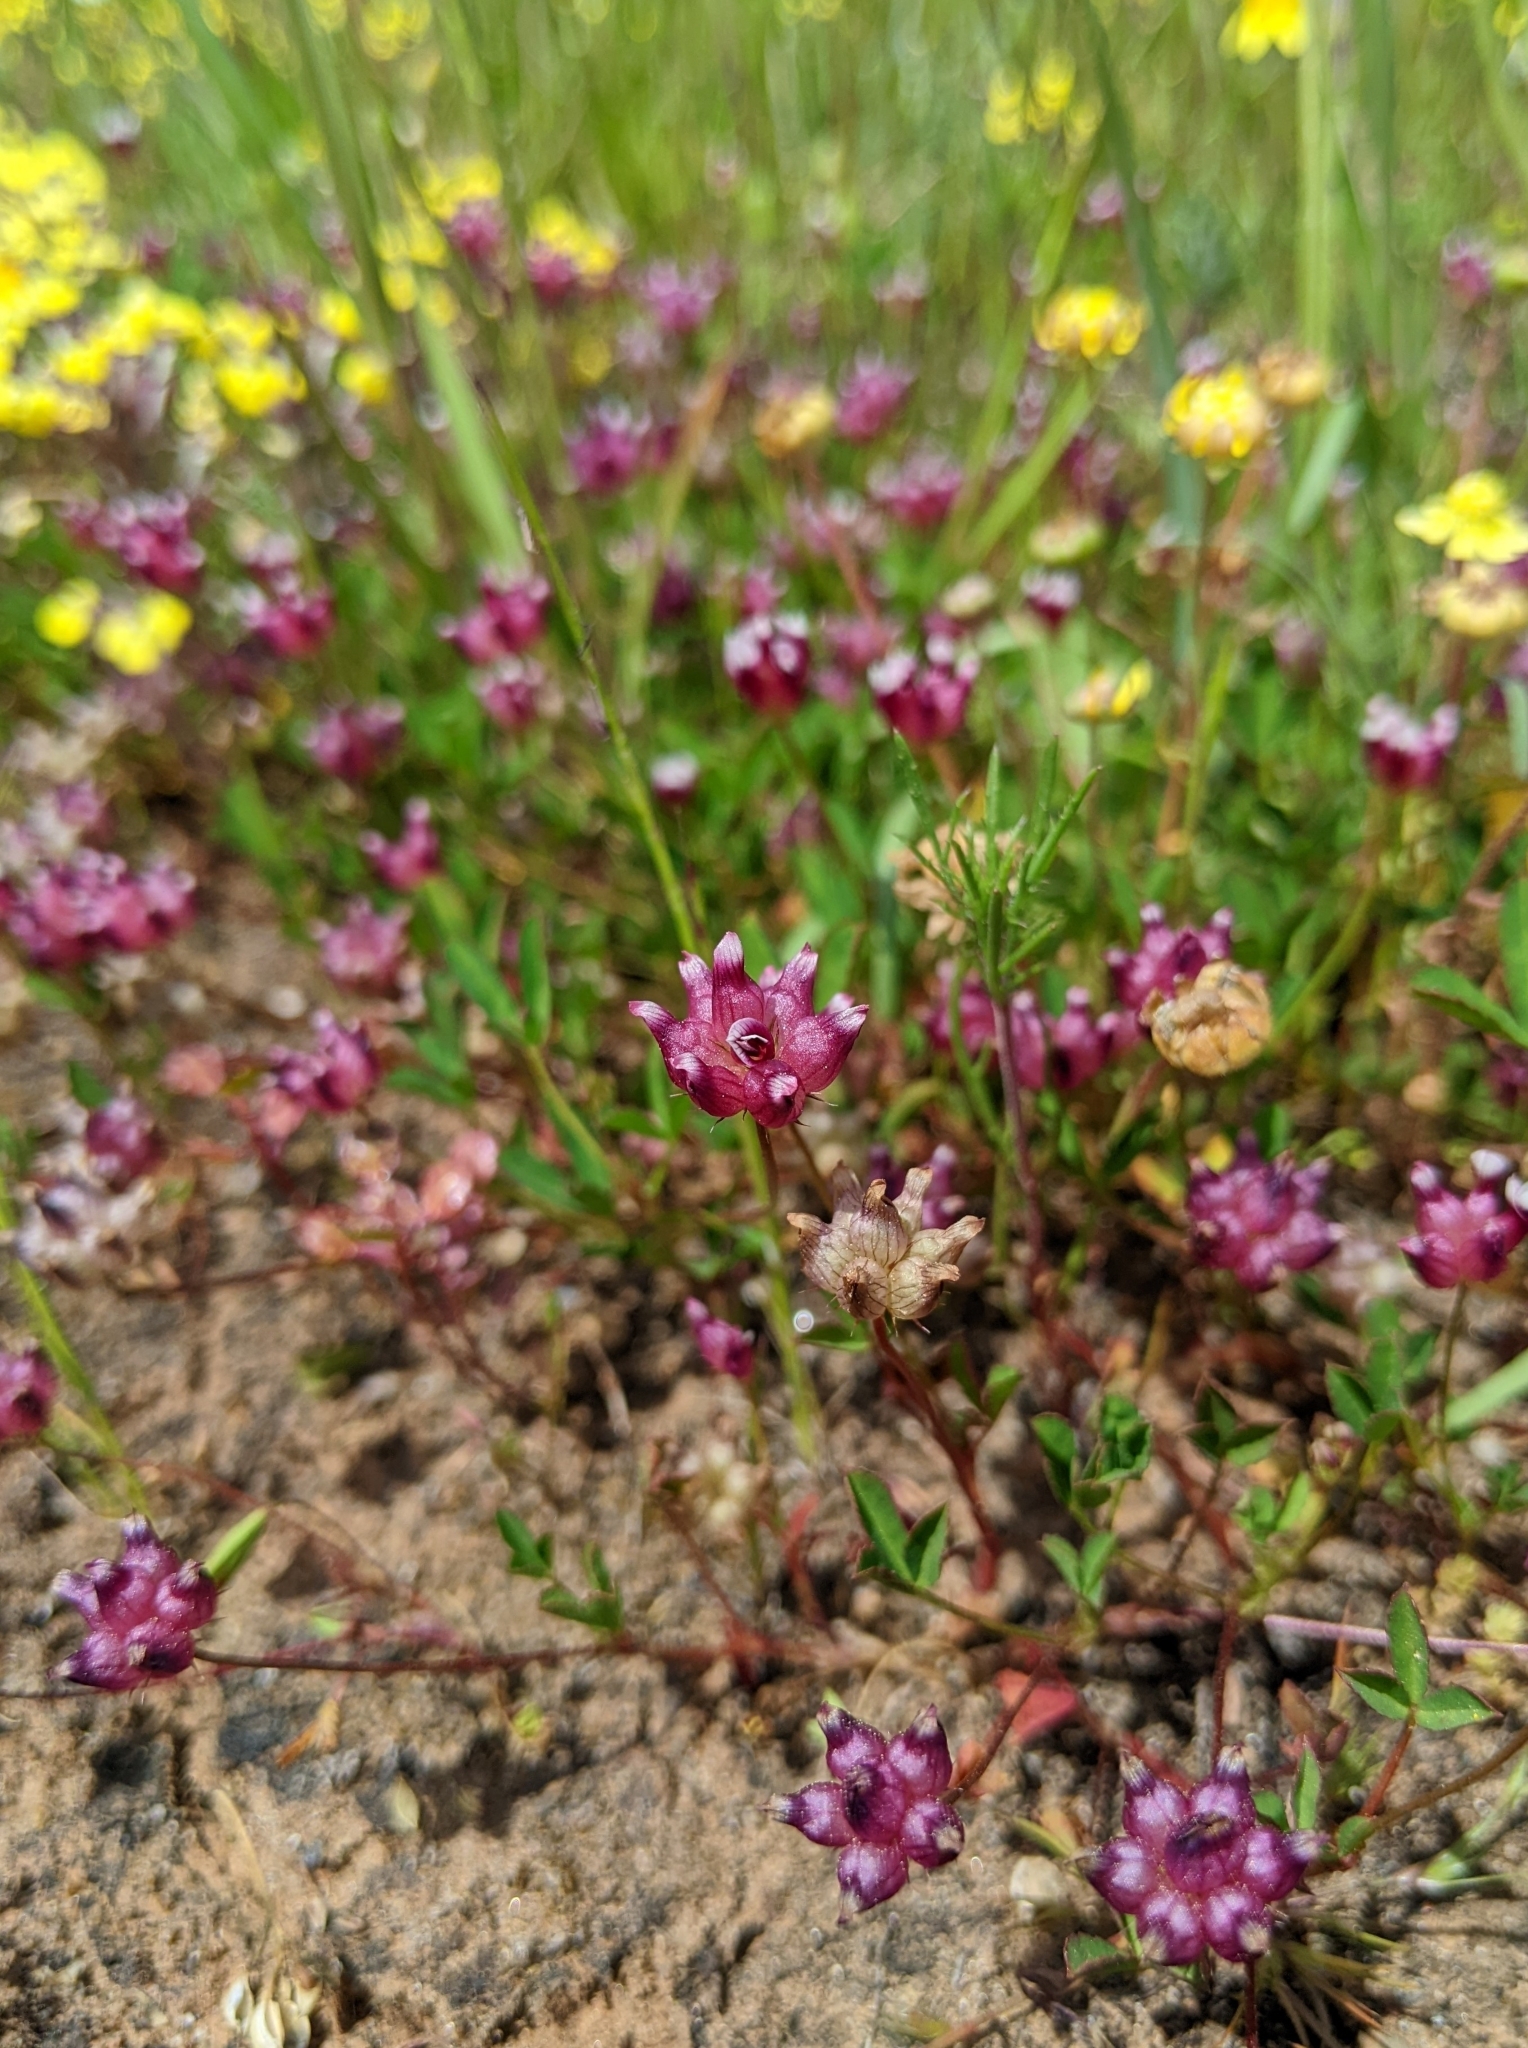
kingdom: Plantae
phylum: Tracheophyta
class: Magnoliopsida
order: Fabales
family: Fabaceae
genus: Trifolium
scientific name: Trifolium depauperatum
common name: Poverty clover
